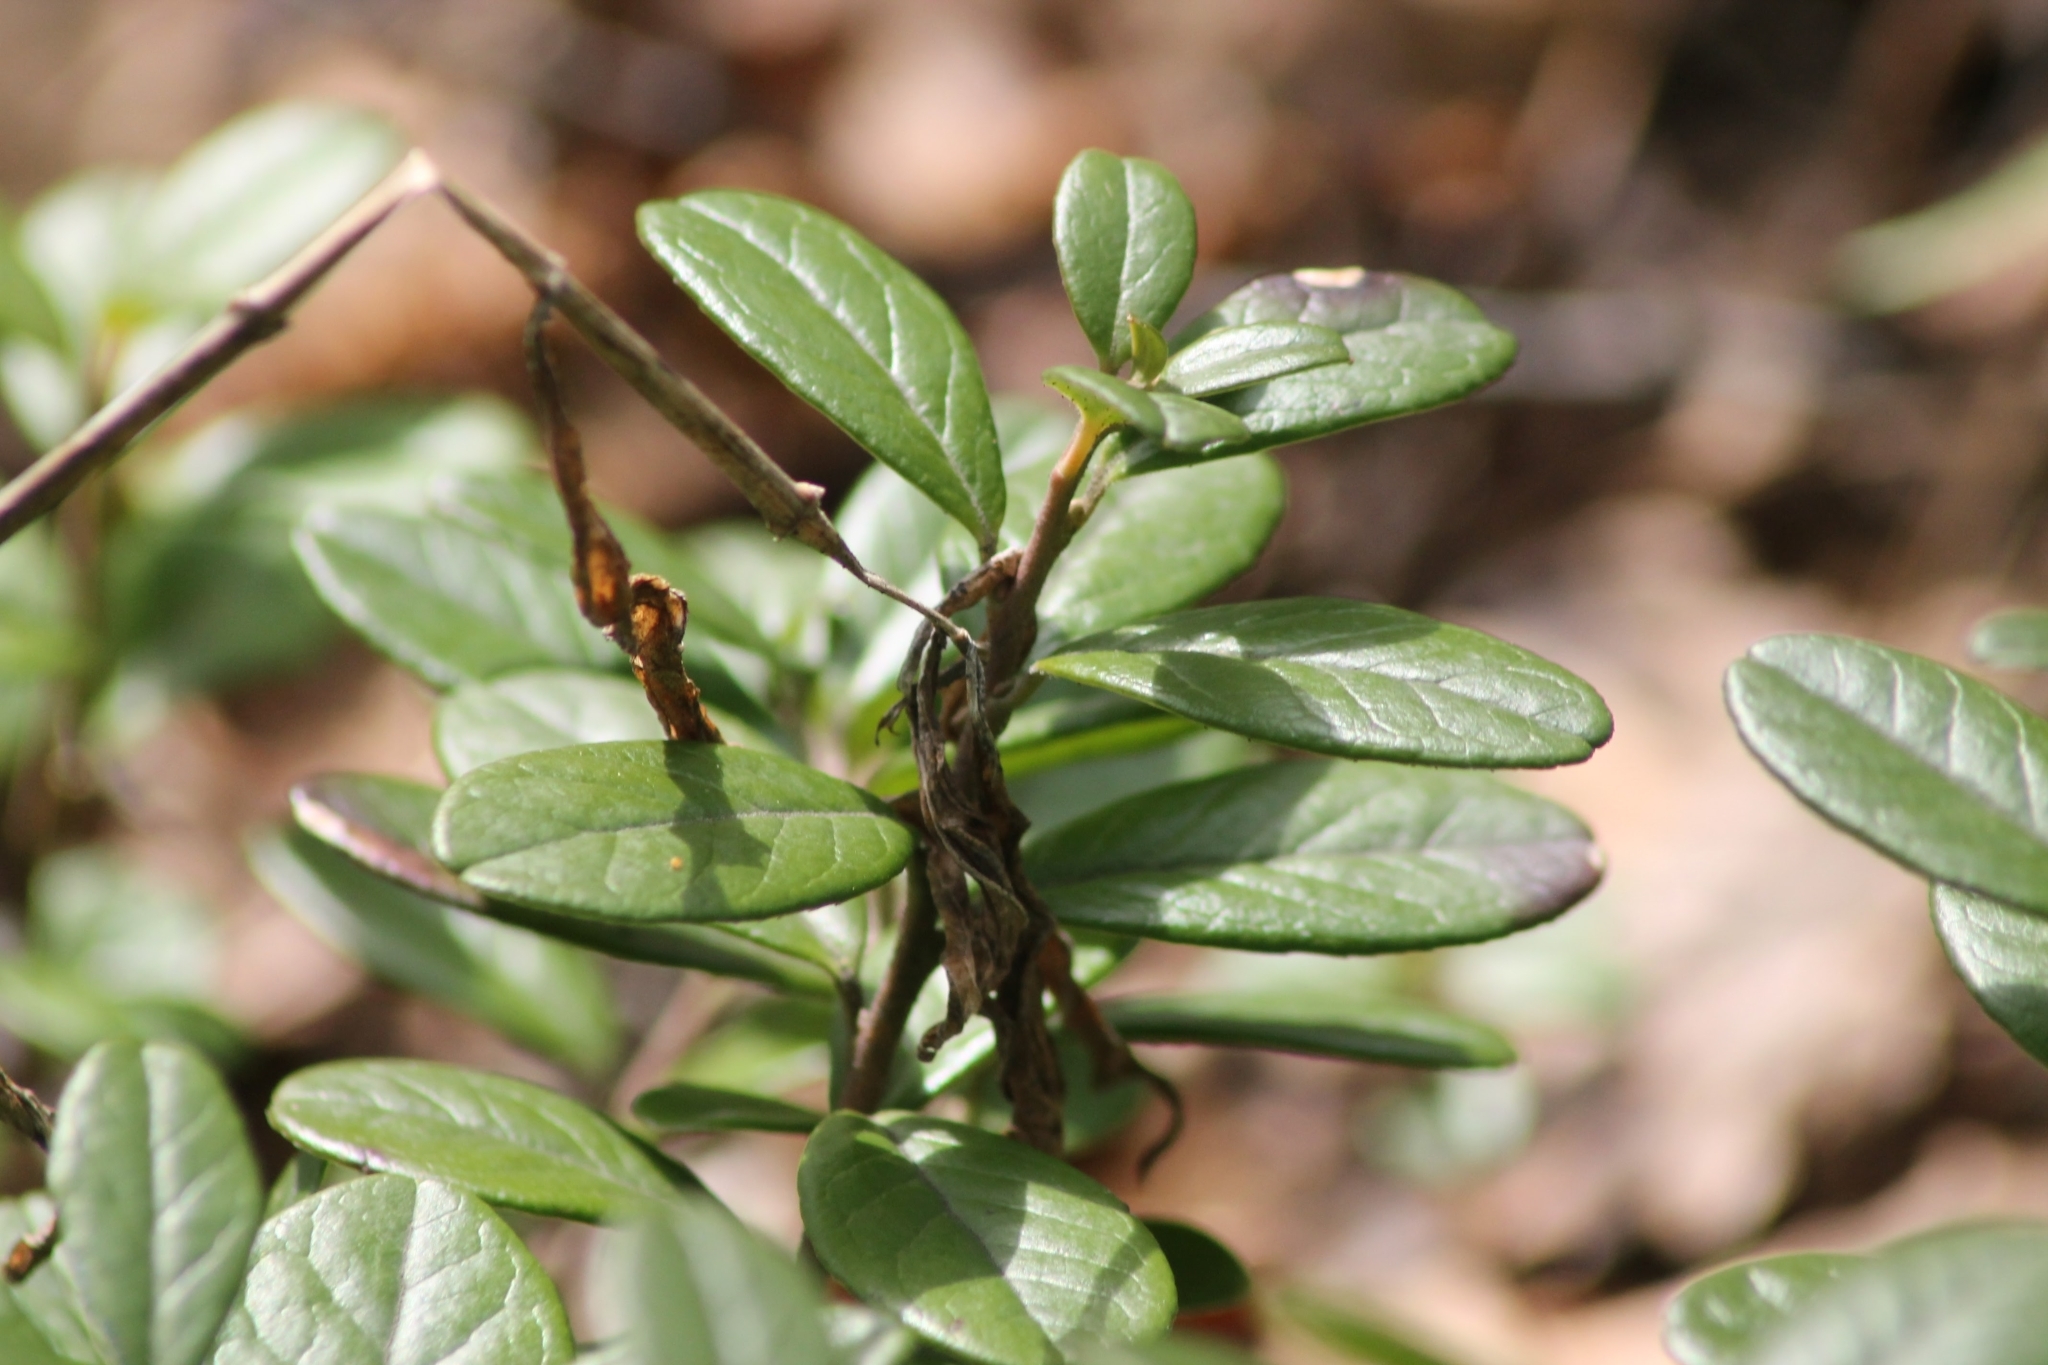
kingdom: Plantae
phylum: Tracheophyta
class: Magnoliopsida
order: Ericales
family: Ericaceae
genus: Vaccinium
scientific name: Vaccinium vitis-idaea
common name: Cowberry
